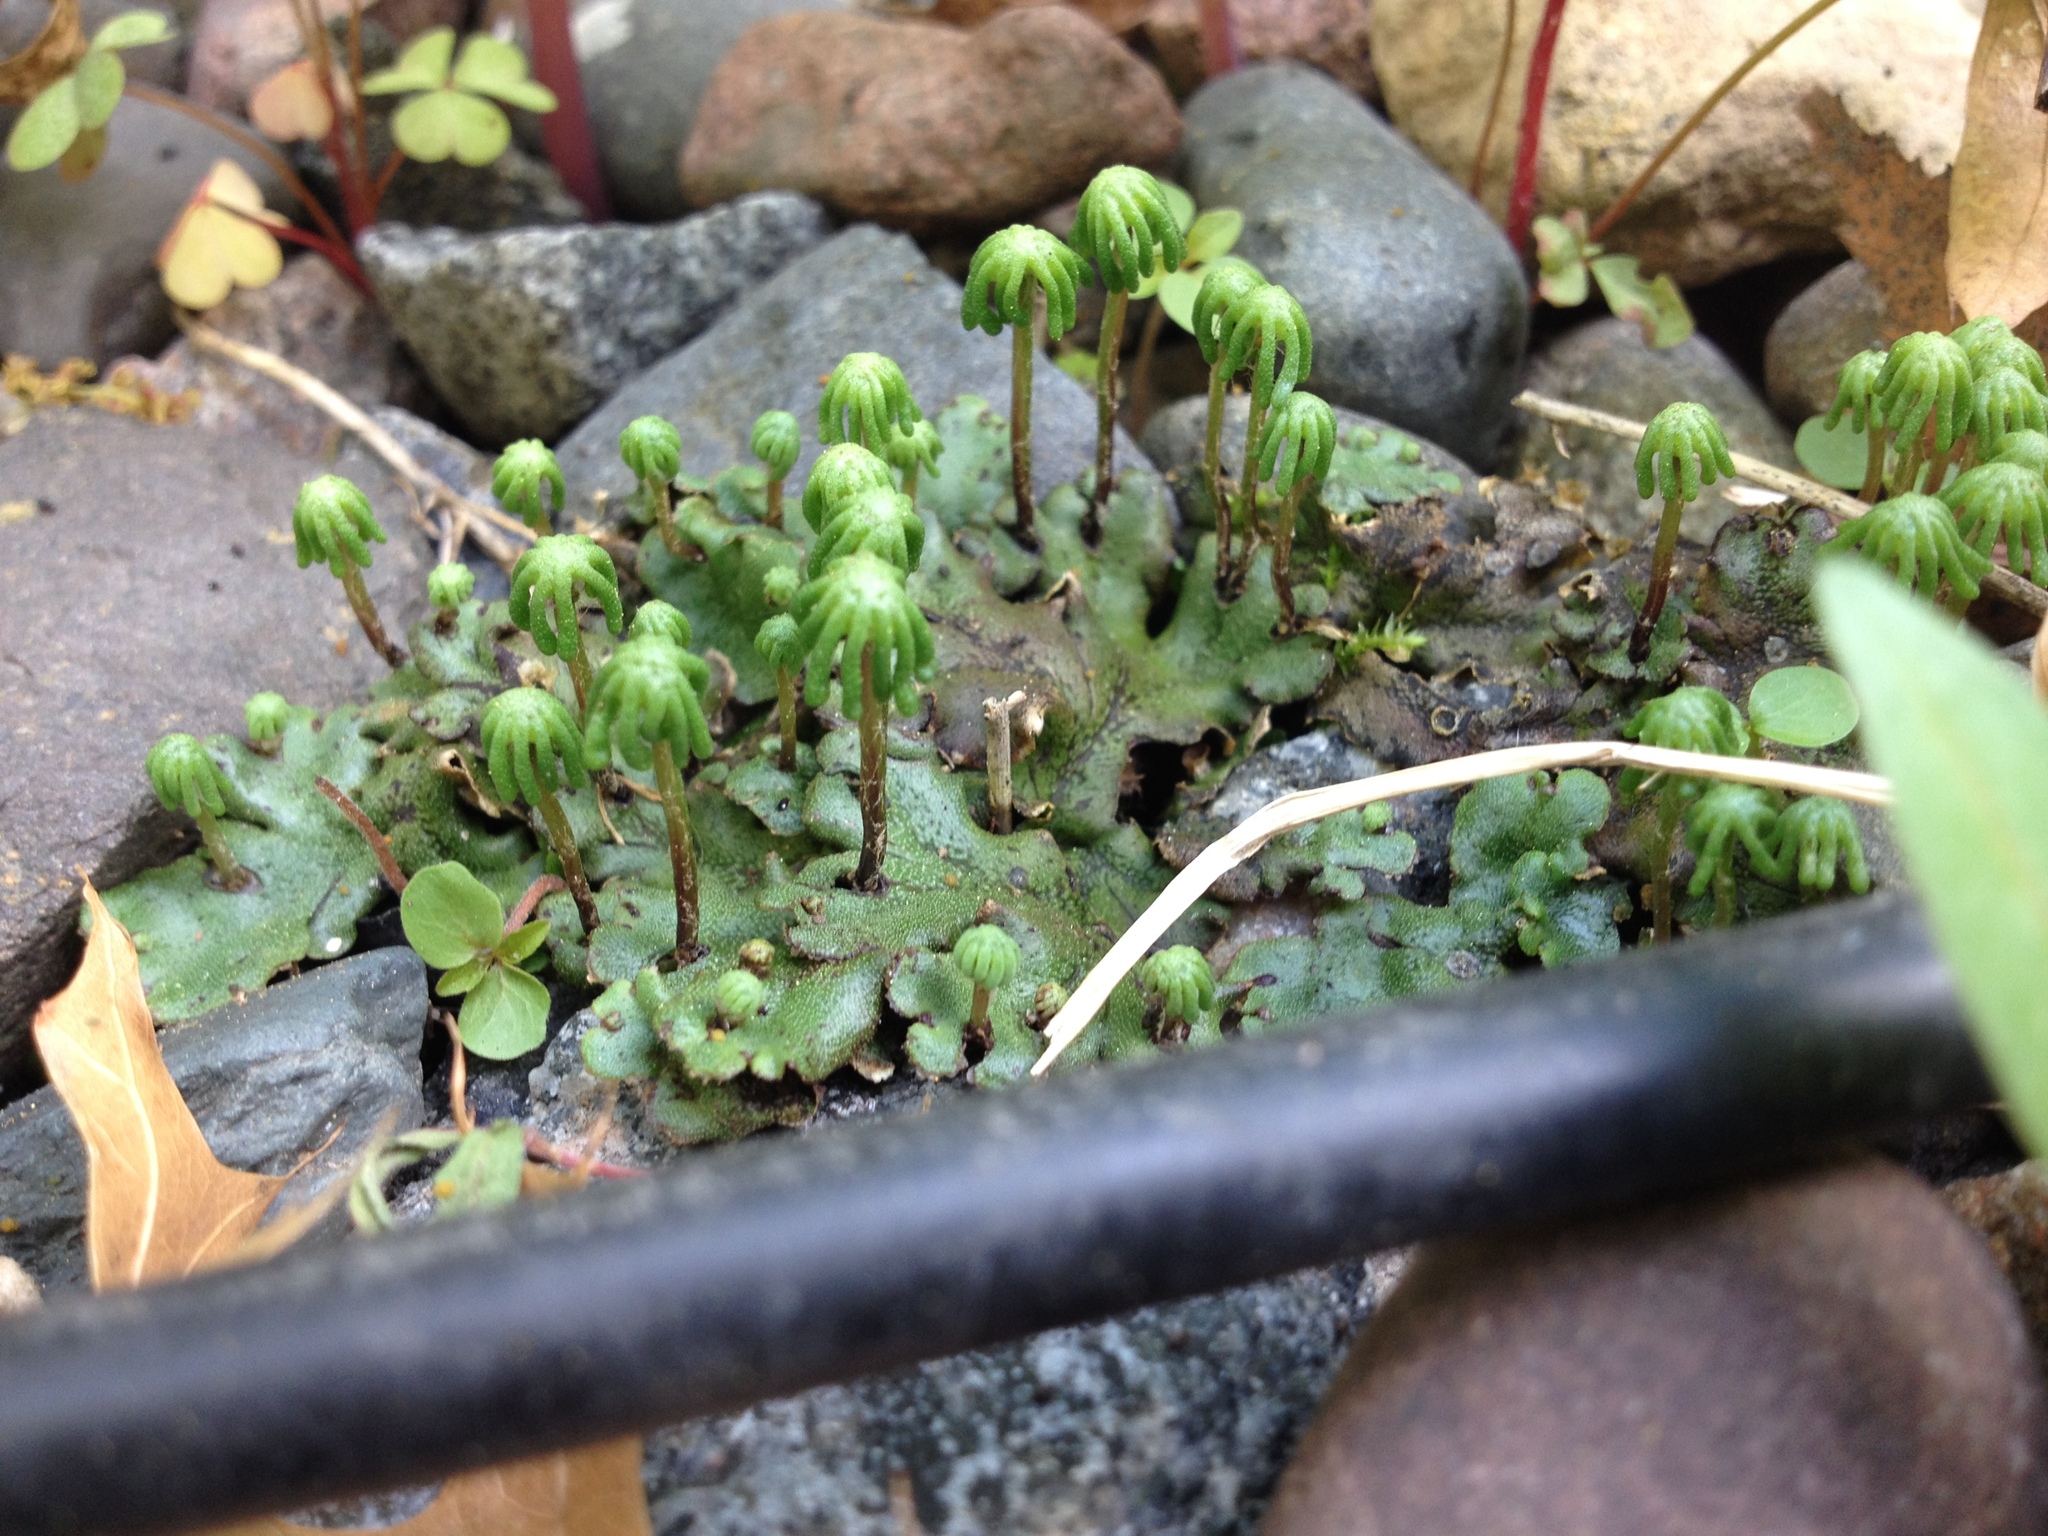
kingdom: Plantae
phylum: Marchantiophyta
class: Marchantiopsida
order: Marchantiales
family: Marchantiaceae
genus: Marchantia
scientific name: Marchantia polymorpha
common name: Common liverwort
